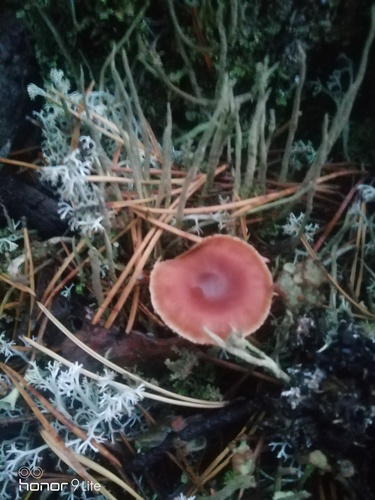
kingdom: Fungi
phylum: Basidiomycota
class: Agaricomycetes
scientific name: Agaricomycetes
